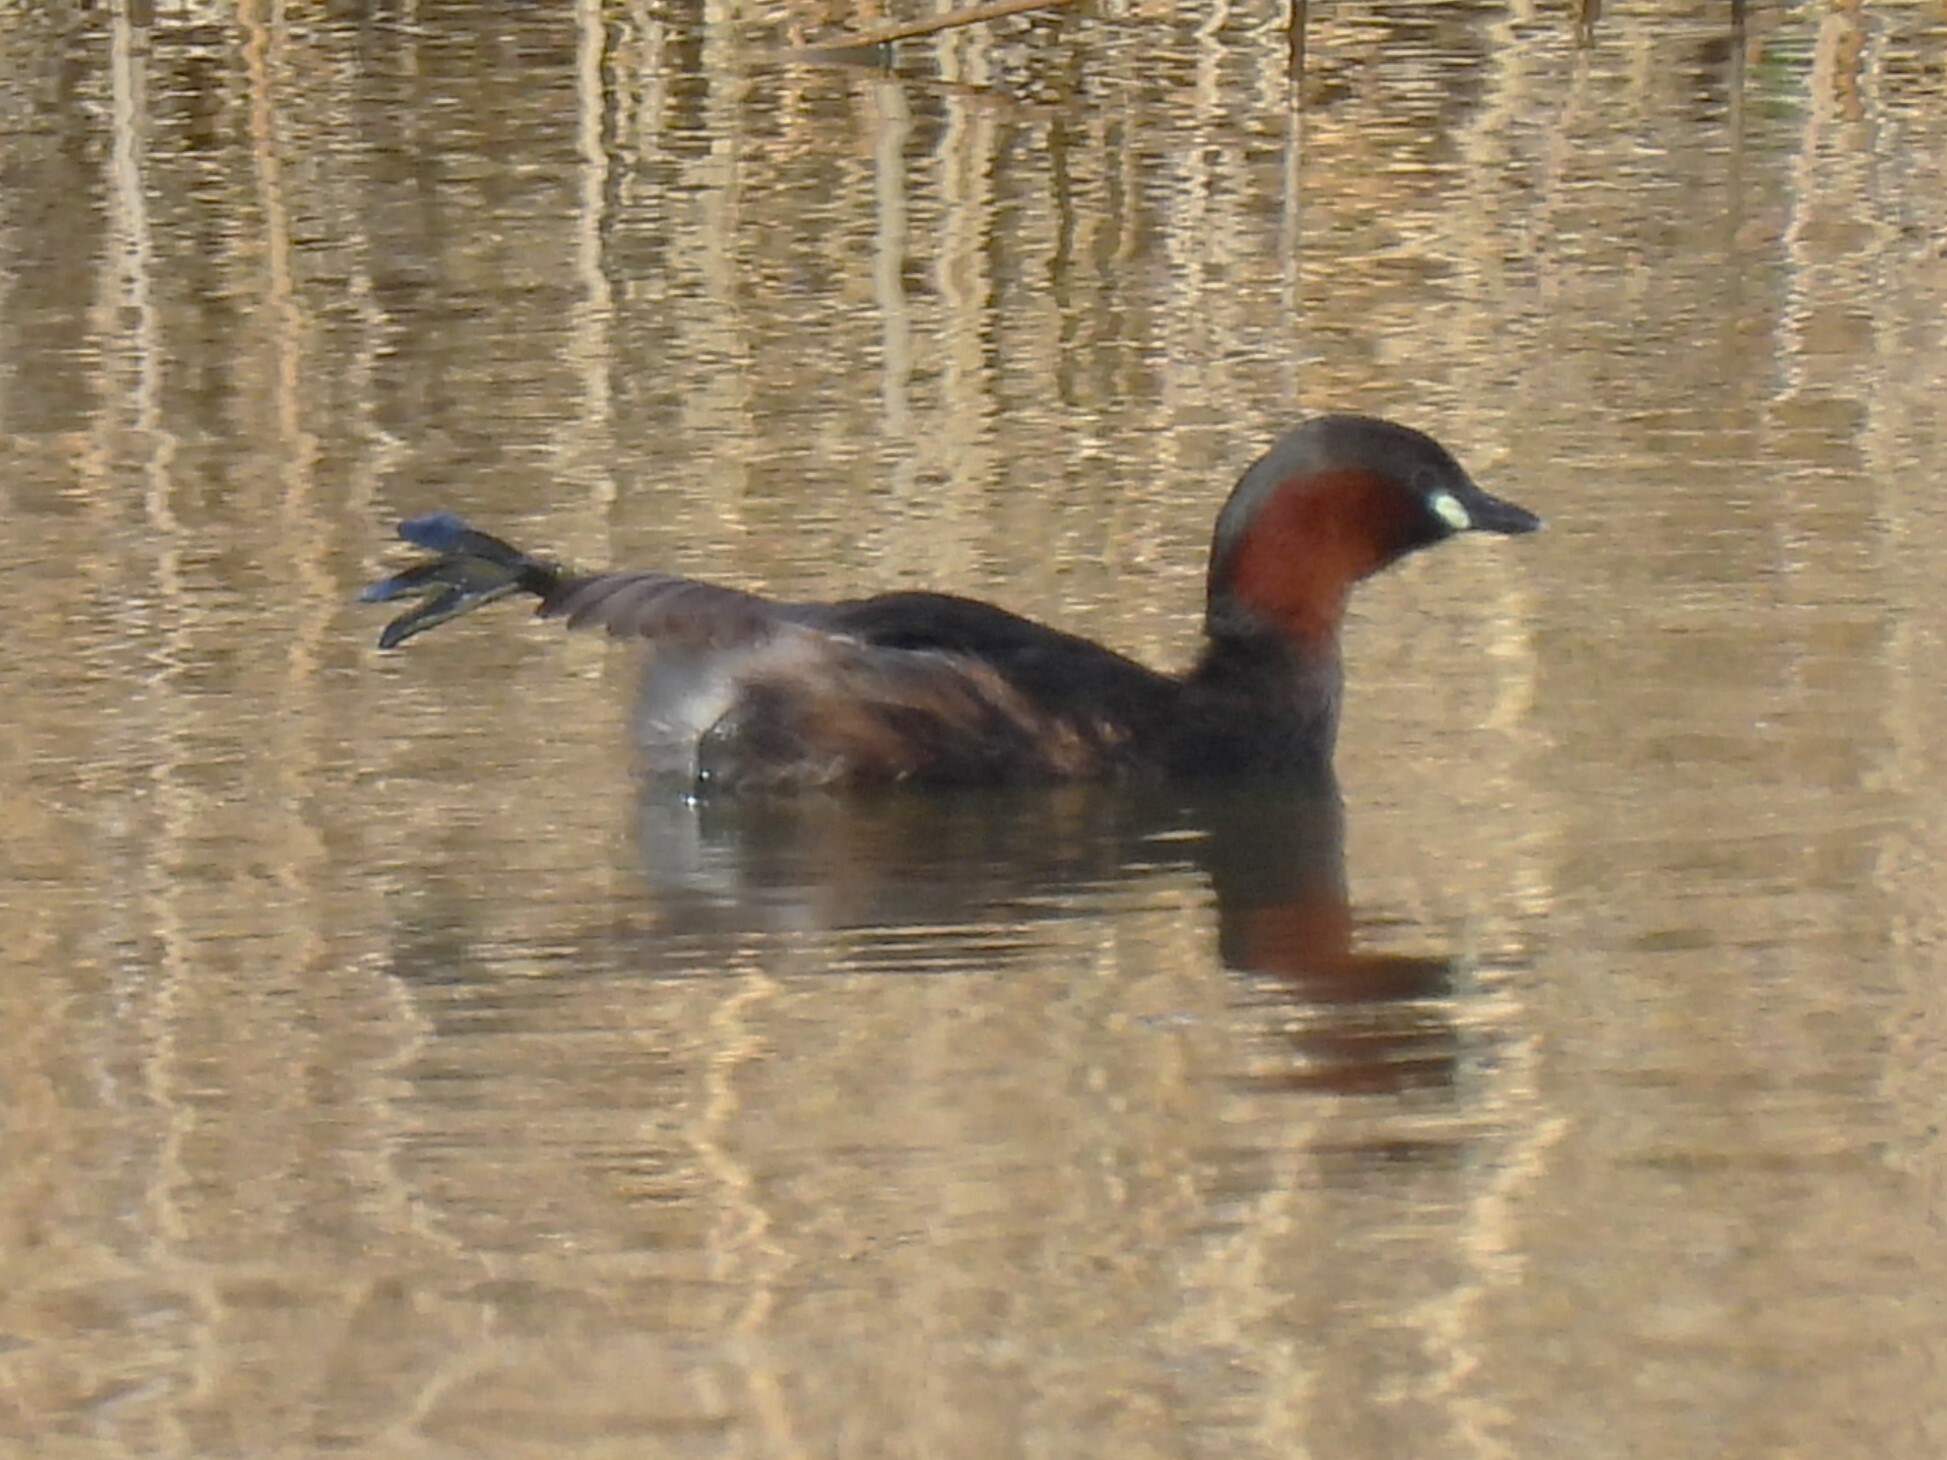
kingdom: Animalia
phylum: Chordata
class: Aves
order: Podicipediformes
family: Podicipedidae
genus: Tachybaptus
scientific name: Tachybaptus ruficollis
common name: Little grebe
